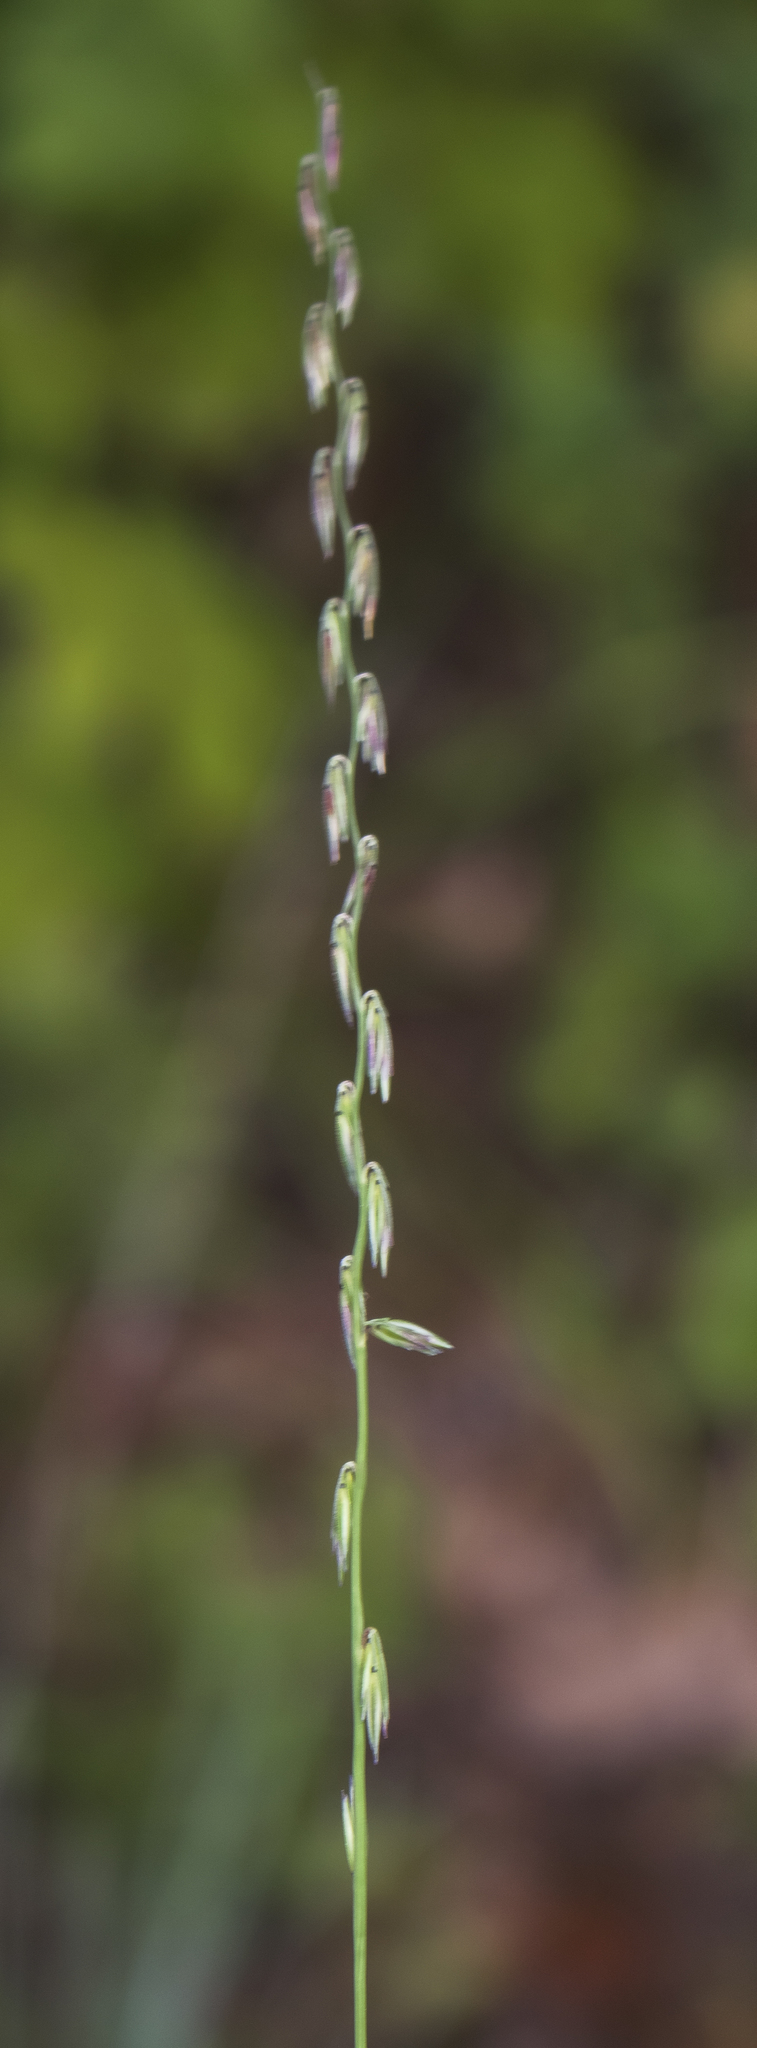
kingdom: Plantae
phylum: Tracheophyta
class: Liliopsida
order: Poales
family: Poaceae
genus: Bouteloua
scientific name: Bouteloua curtipendula
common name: Side-oats grama
